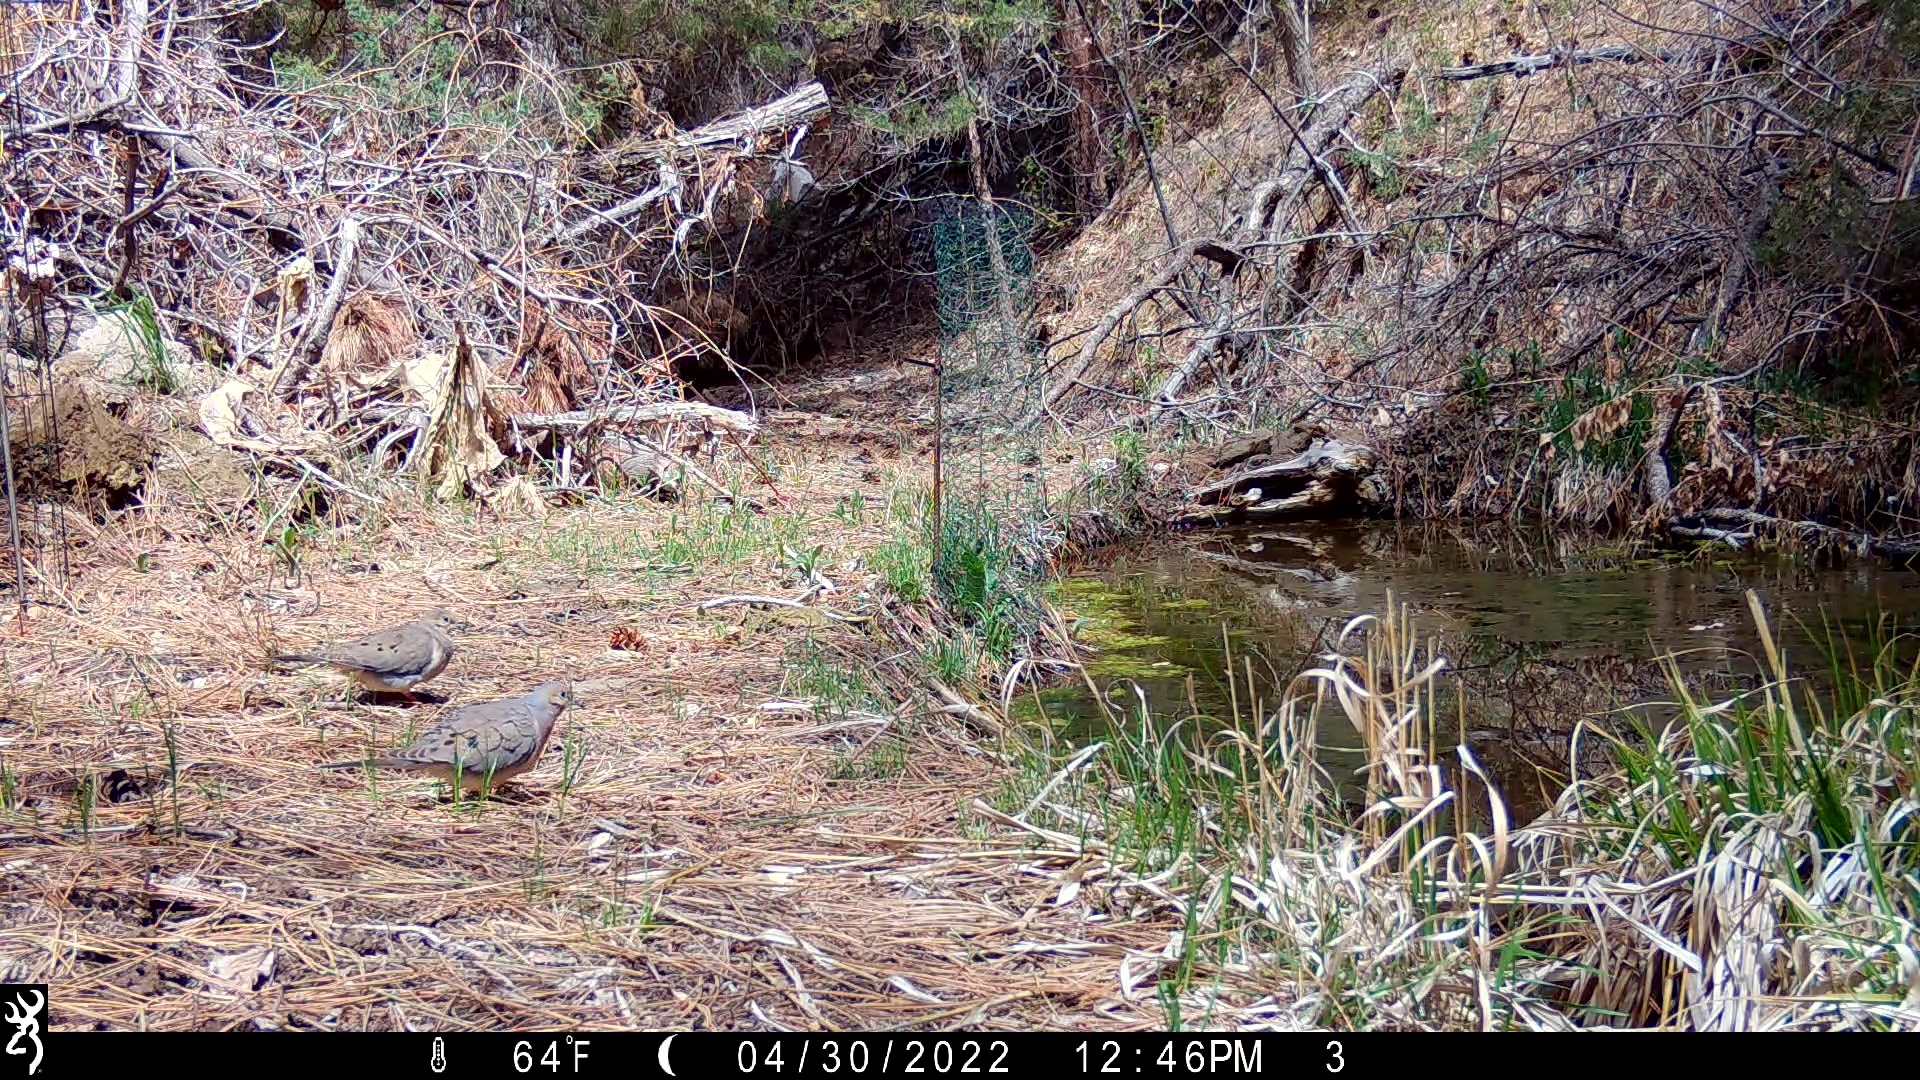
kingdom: Animalia
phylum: Chordata
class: Aves
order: Columbiformes
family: Columbidae
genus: Zenaida
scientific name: Zenaida macroura
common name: Mourning dove
